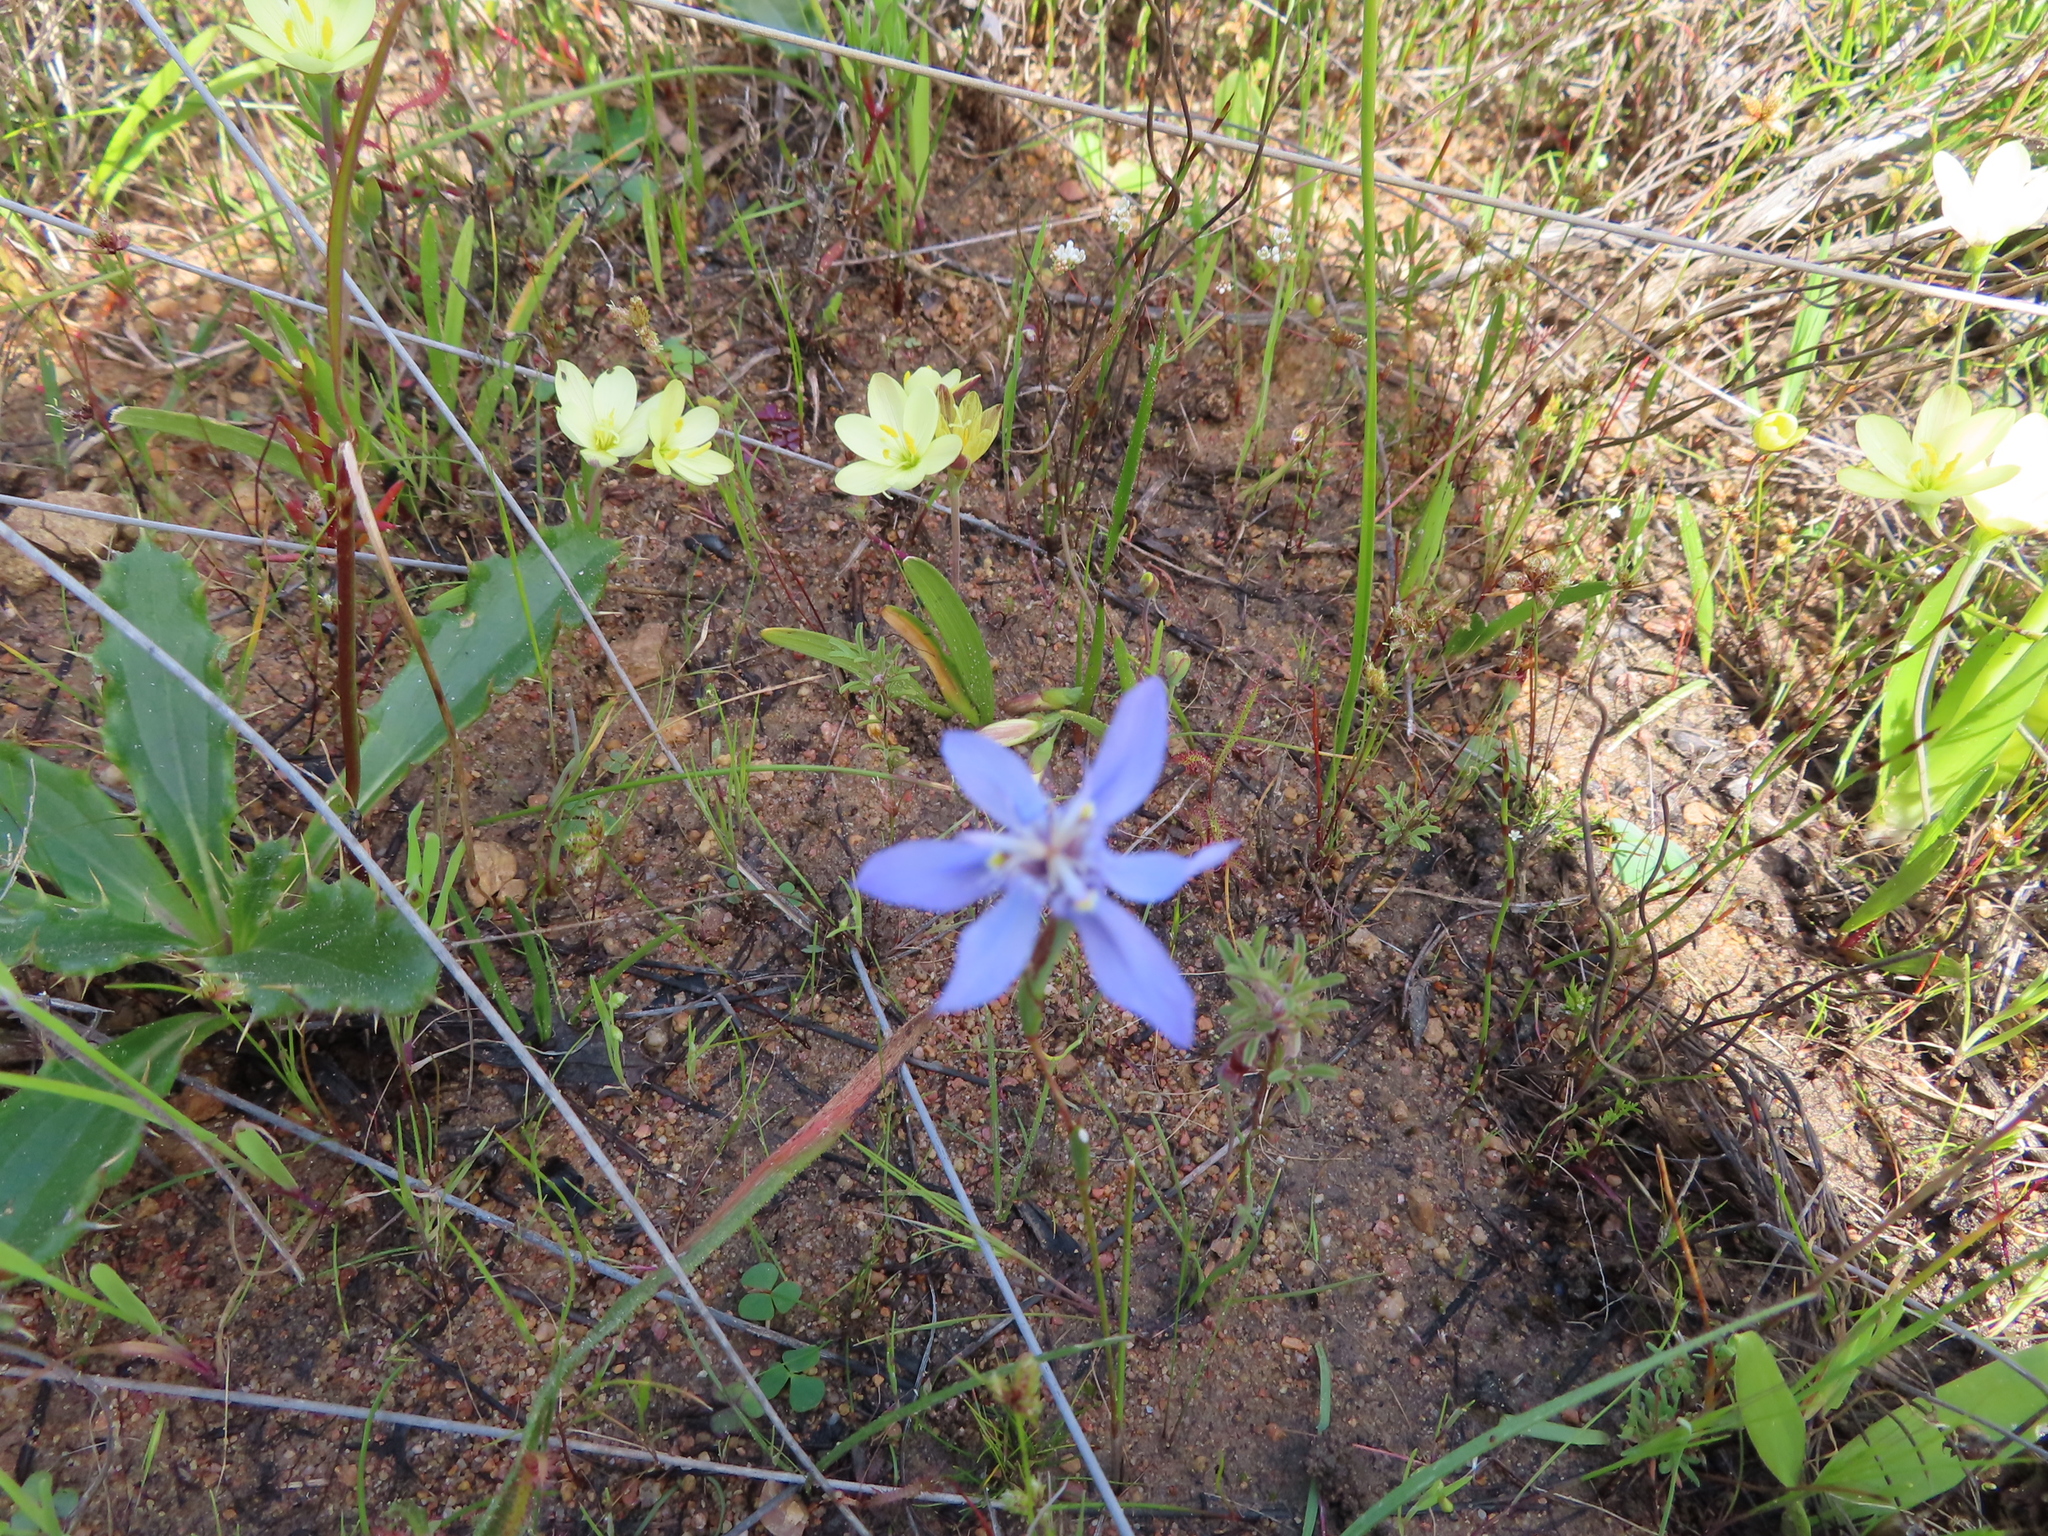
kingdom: Plantae
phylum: Tracheophyta
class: Liliopsida
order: Asparagales
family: Iridaceae
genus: Moraea
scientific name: Moraea lugubris
